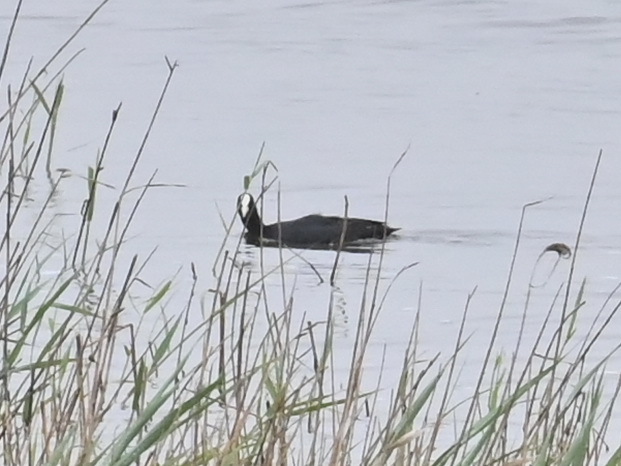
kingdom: Animalia
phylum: Chordata
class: Aves
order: Gruiformes
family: Rallidae
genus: Fulica
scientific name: Fulica atra
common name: Eurasian coot
